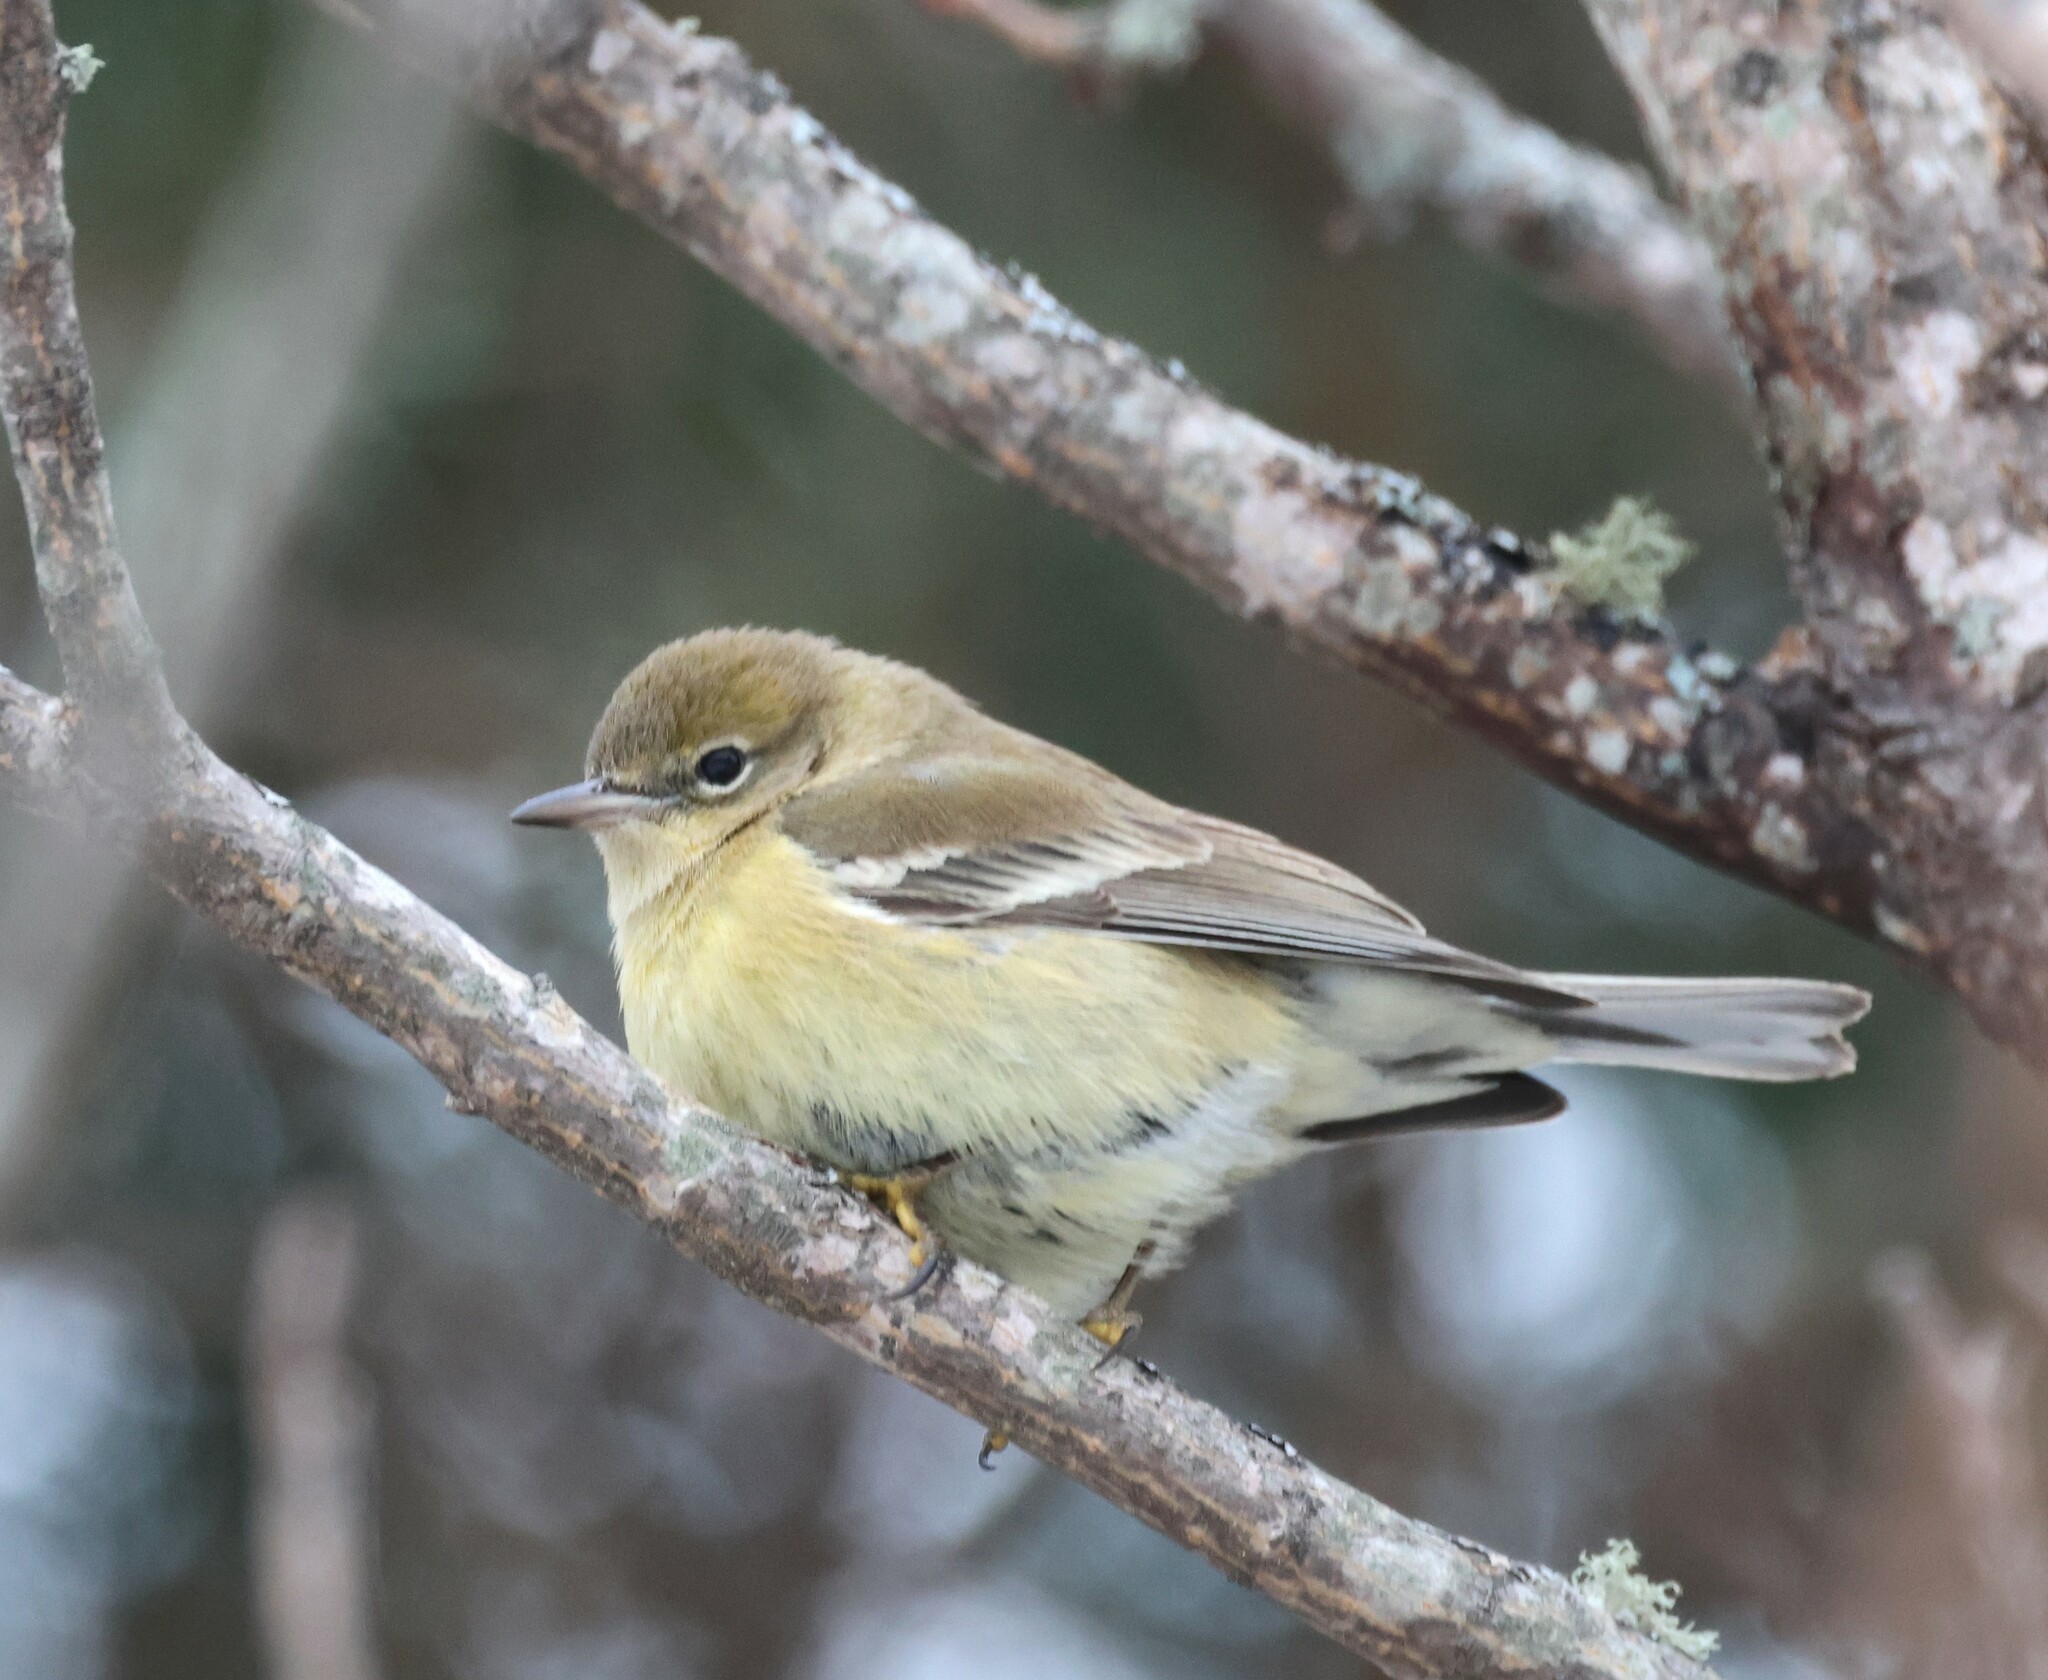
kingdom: Animalia
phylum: Chordata
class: Aves
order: Passeriformes
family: Parulidae
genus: Setophaga
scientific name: Setophaga pinus
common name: Pine warbler
